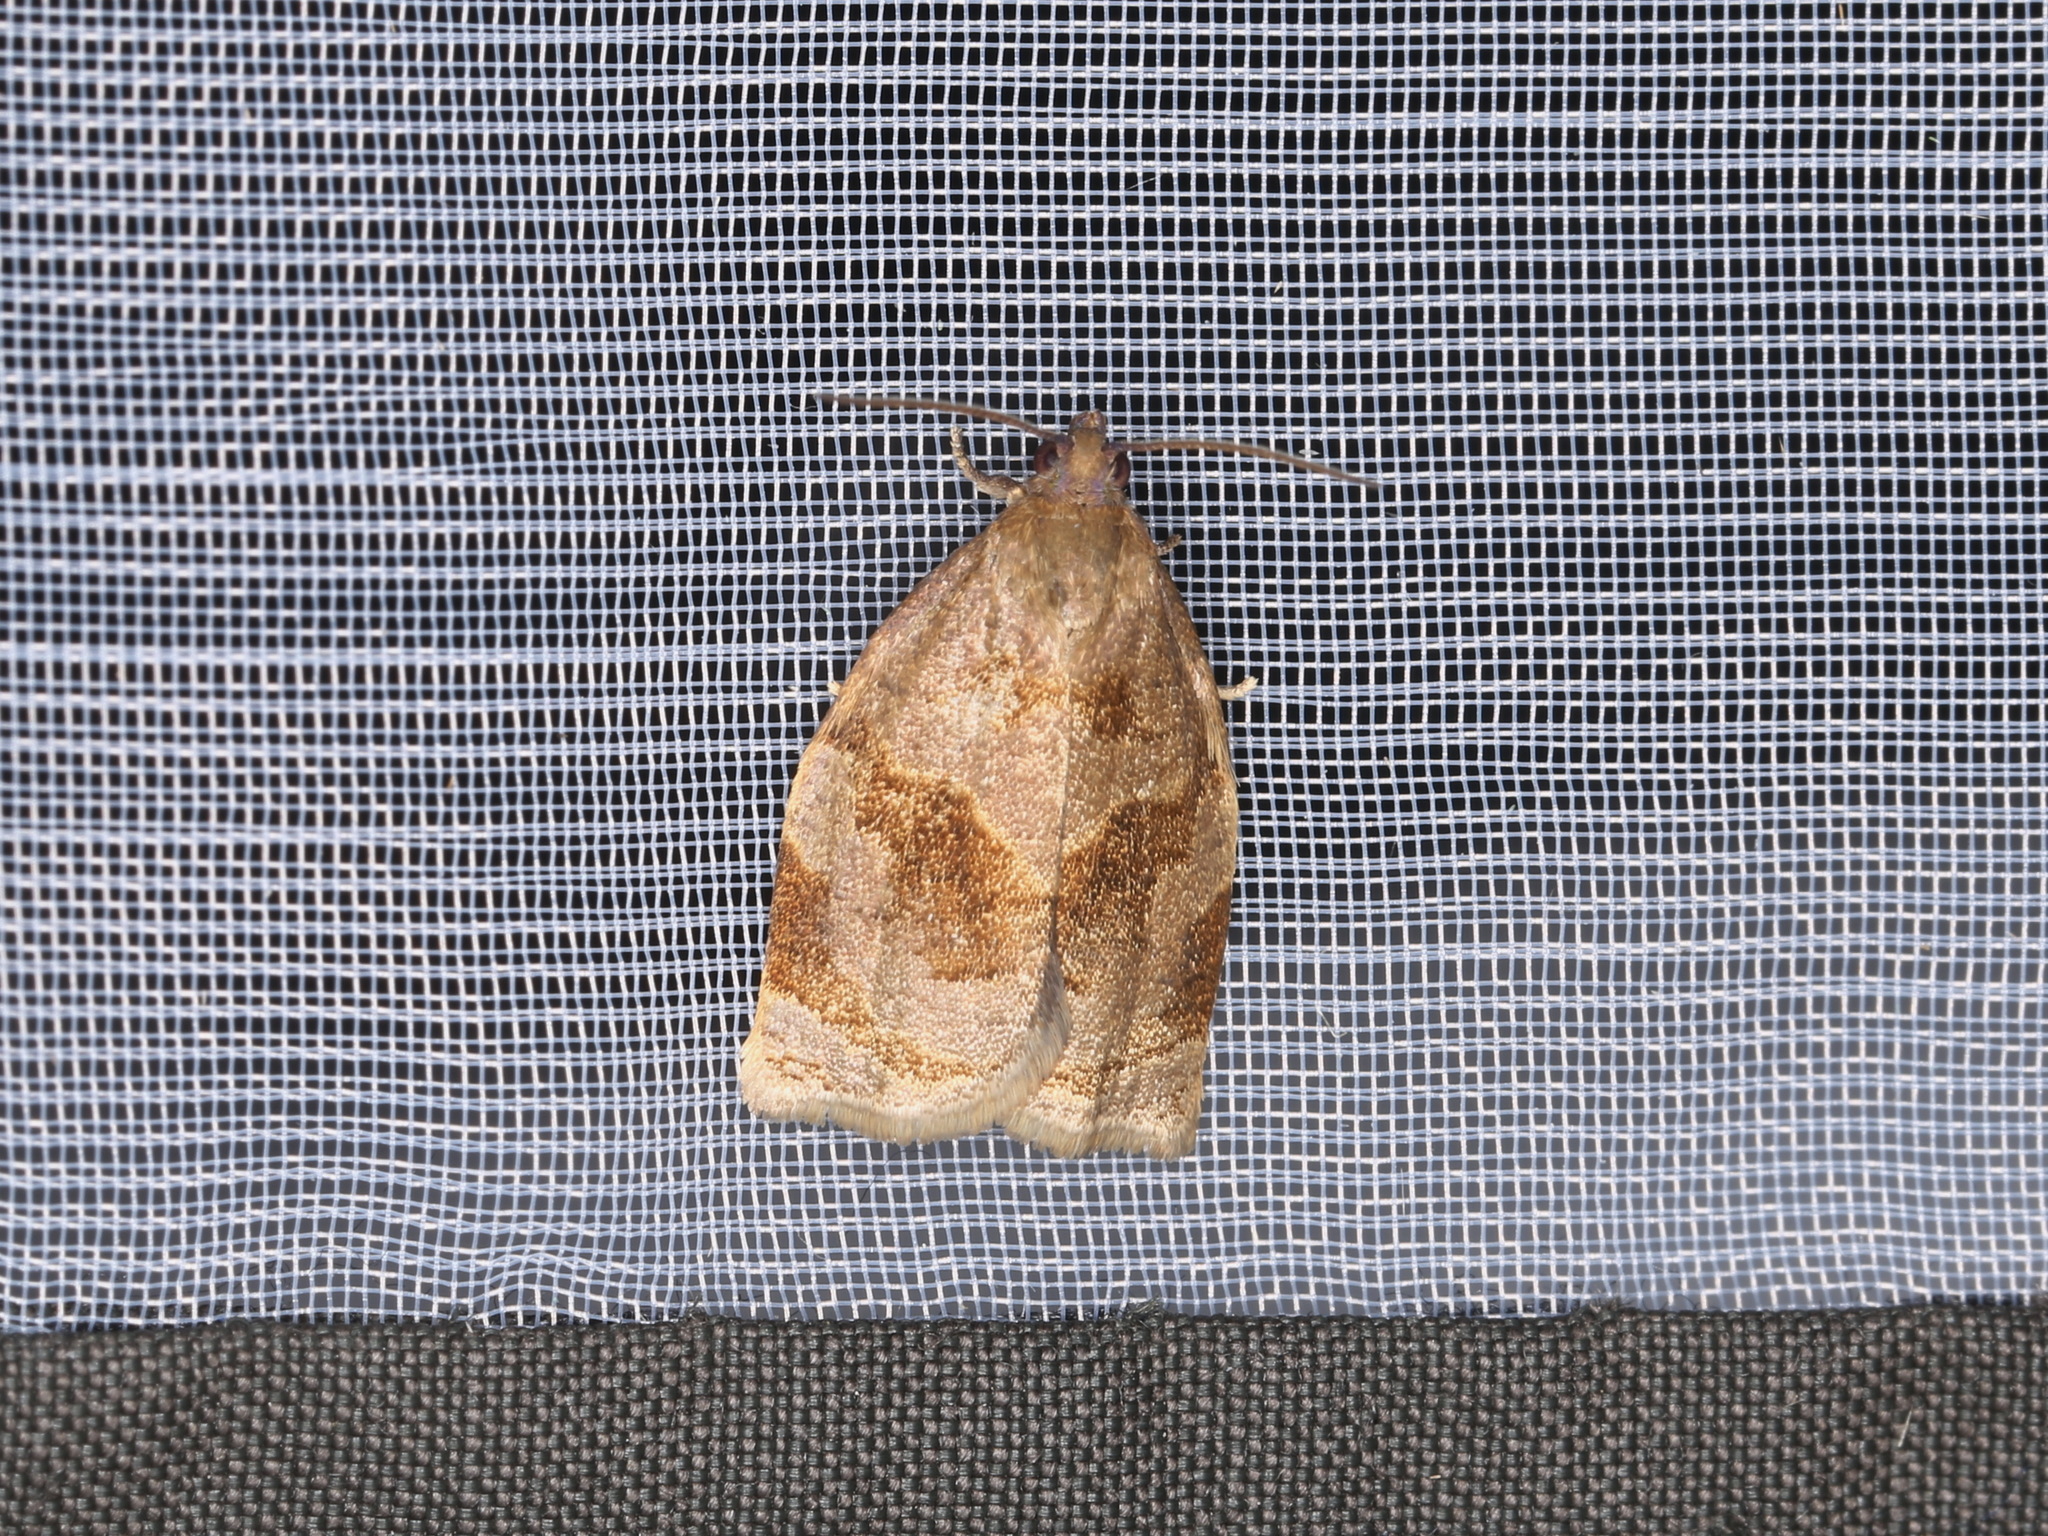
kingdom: Animalia
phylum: Arthropoda
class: Insecta
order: Lepidoptera
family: Tortricidae
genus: Archips
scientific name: Archips rosana
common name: Rose tortrix
